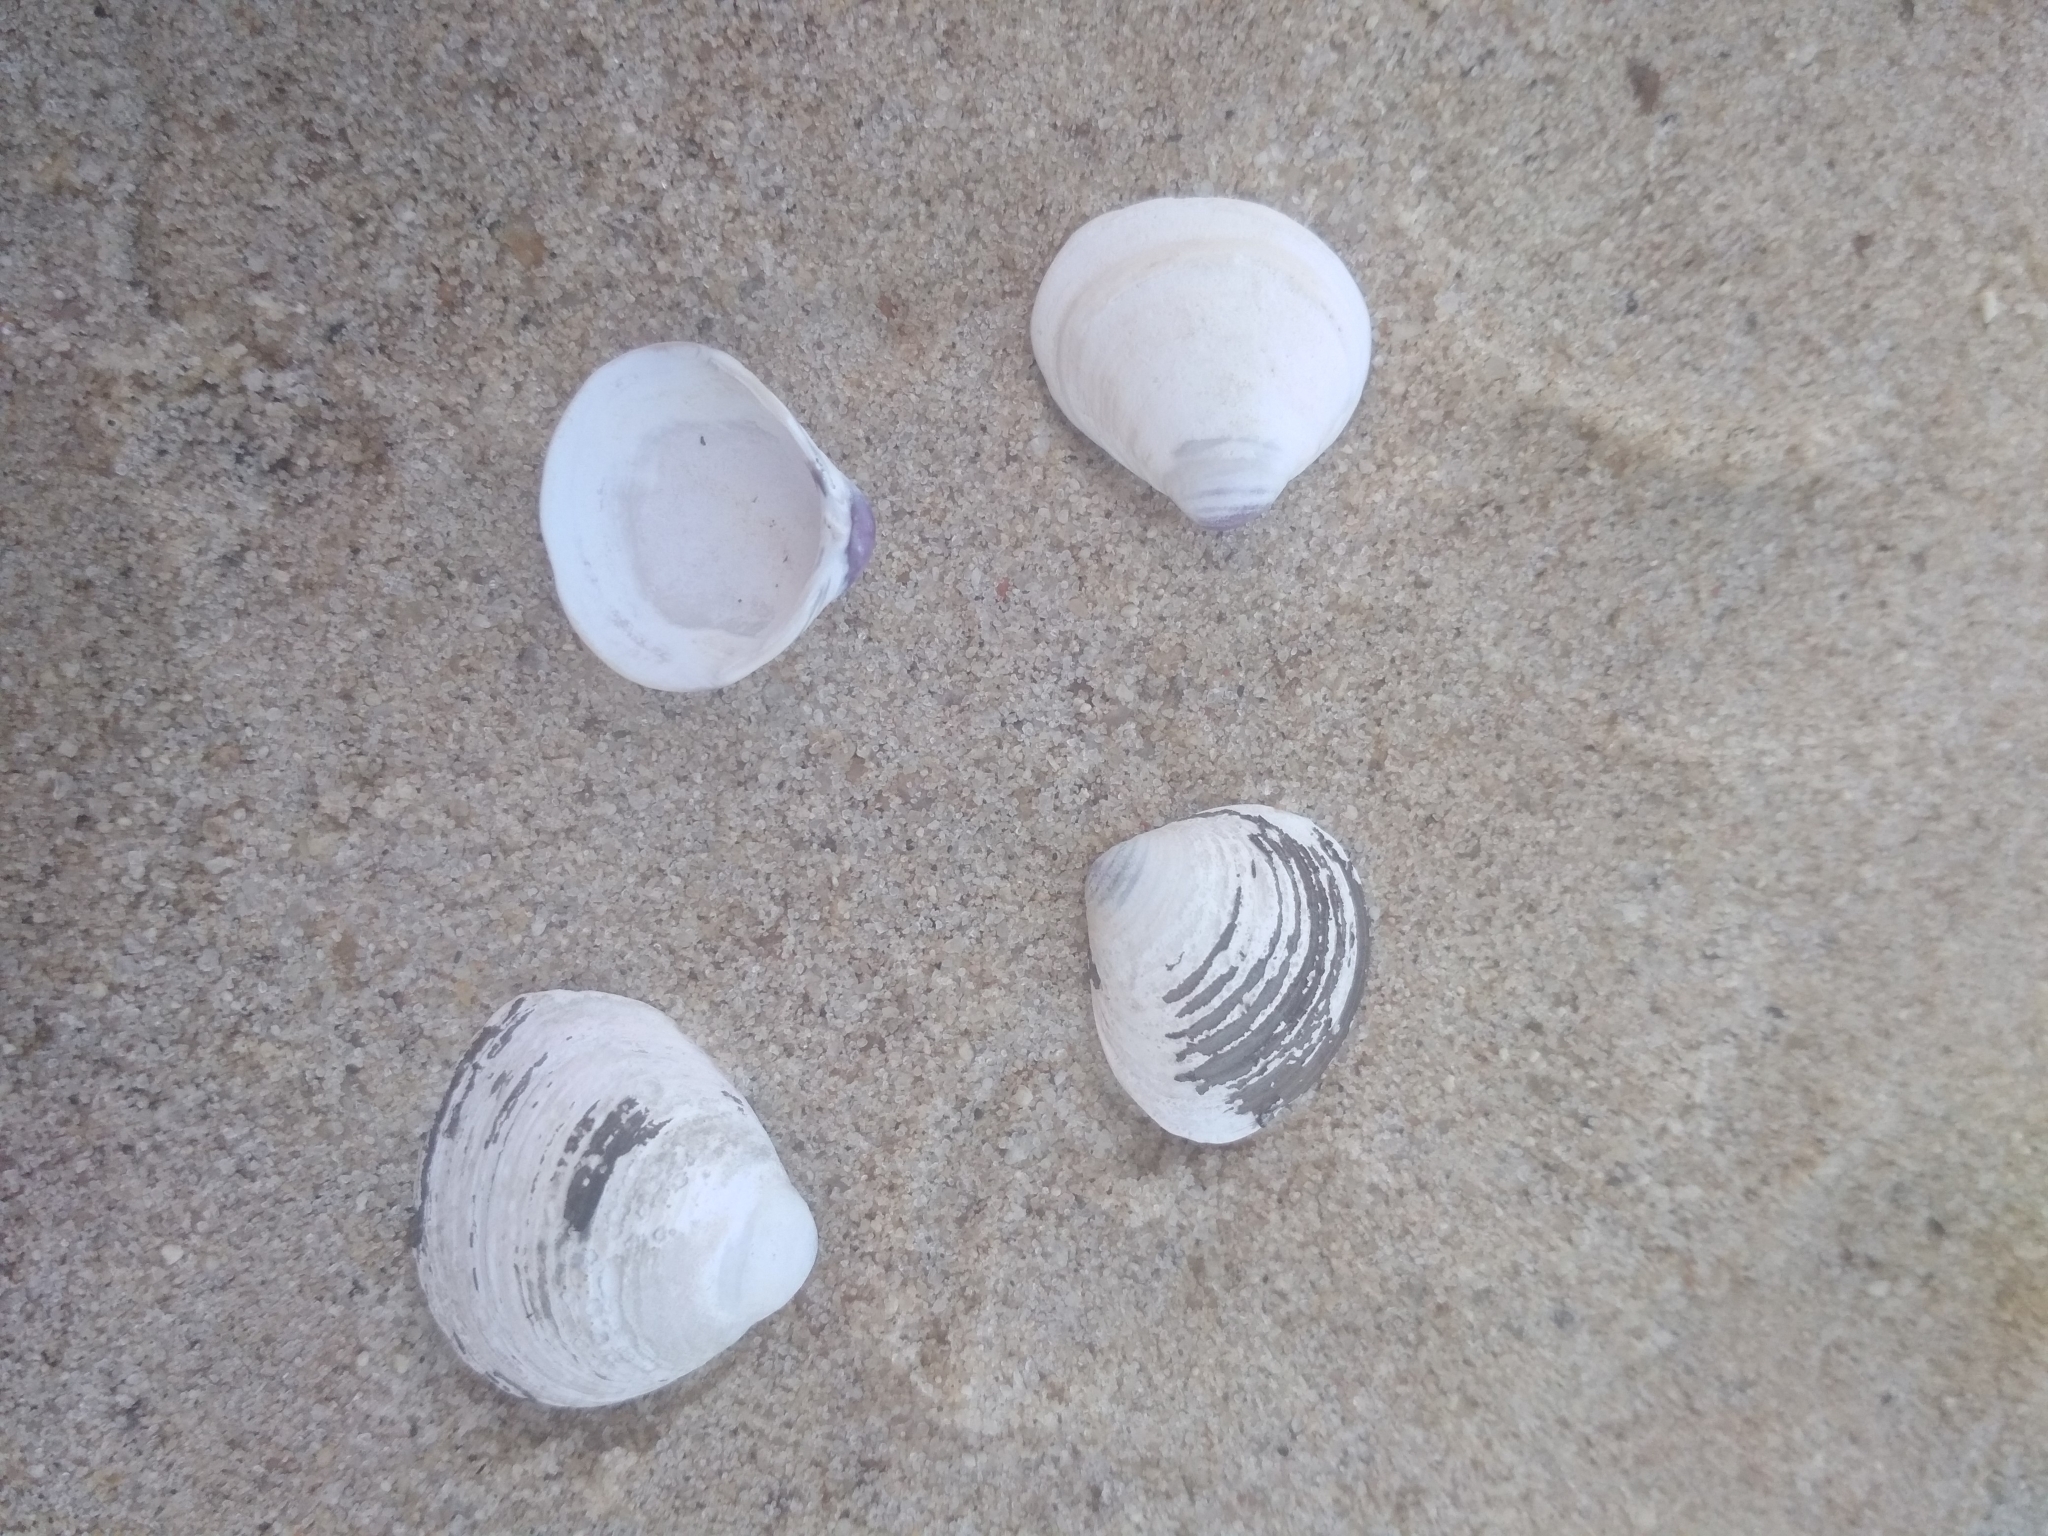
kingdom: Animalia
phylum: Mollusca
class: Bivalvia
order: Venerida
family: Cyrenidae
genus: Corbicula
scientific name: Corbicula fluminea
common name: Asian clam
